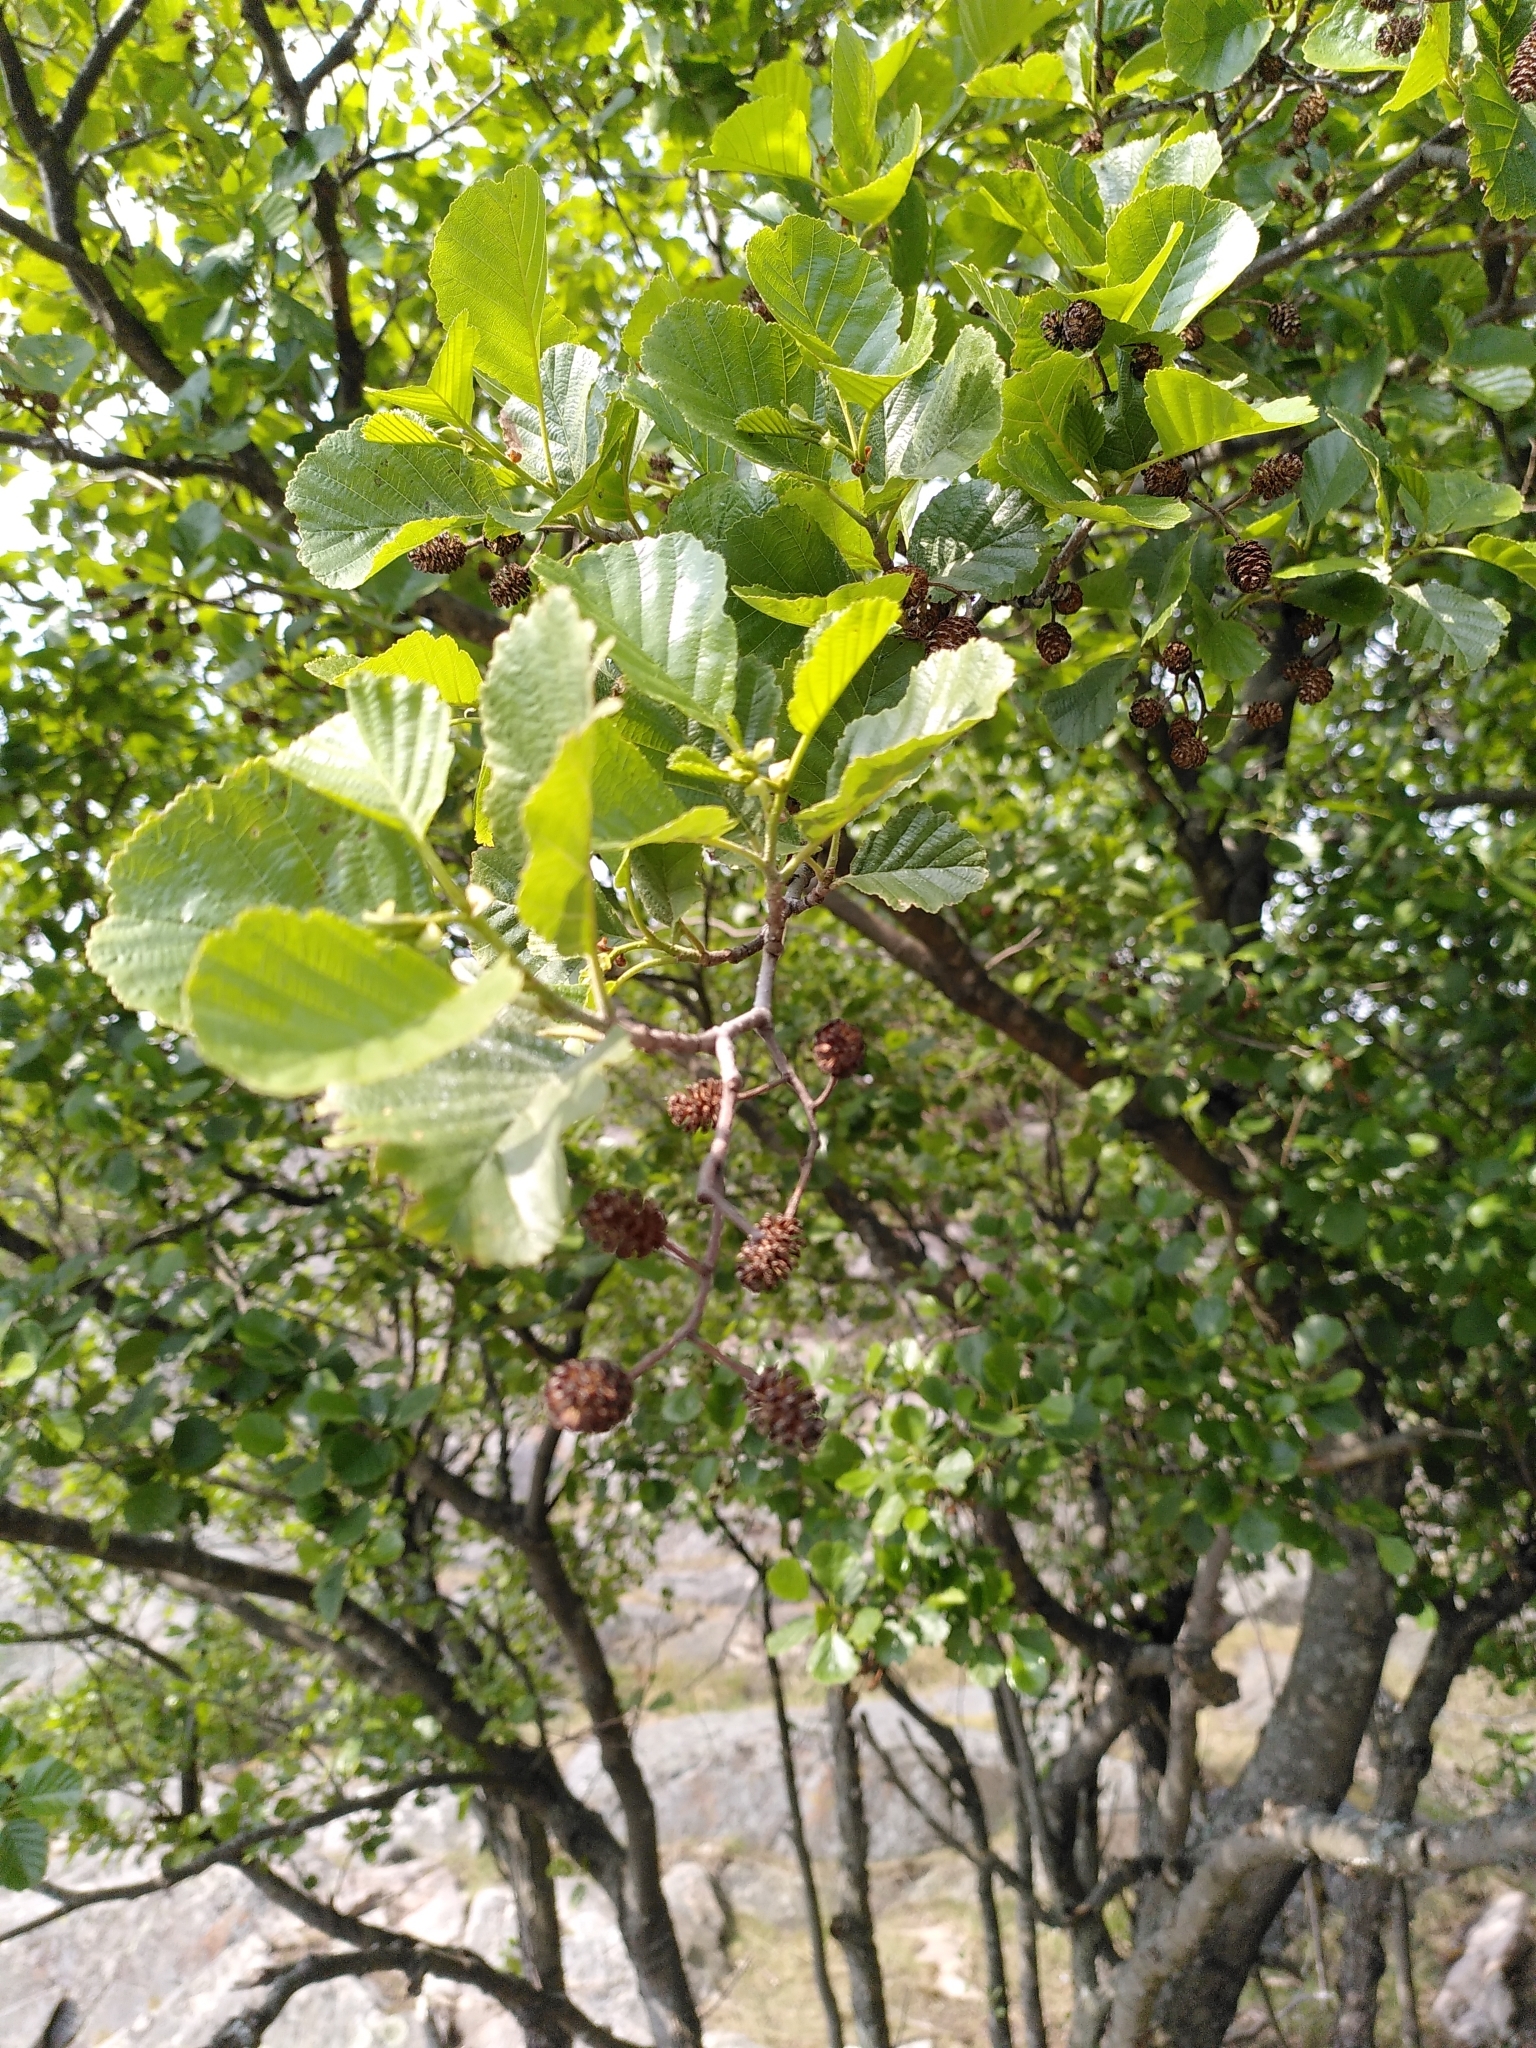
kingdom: Plantae
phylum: Tracheophyta
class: Magnoliopsida
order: Fagales
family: Betulaceae
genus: Alnus
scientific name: Alnus glutinosa
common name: Black alder
